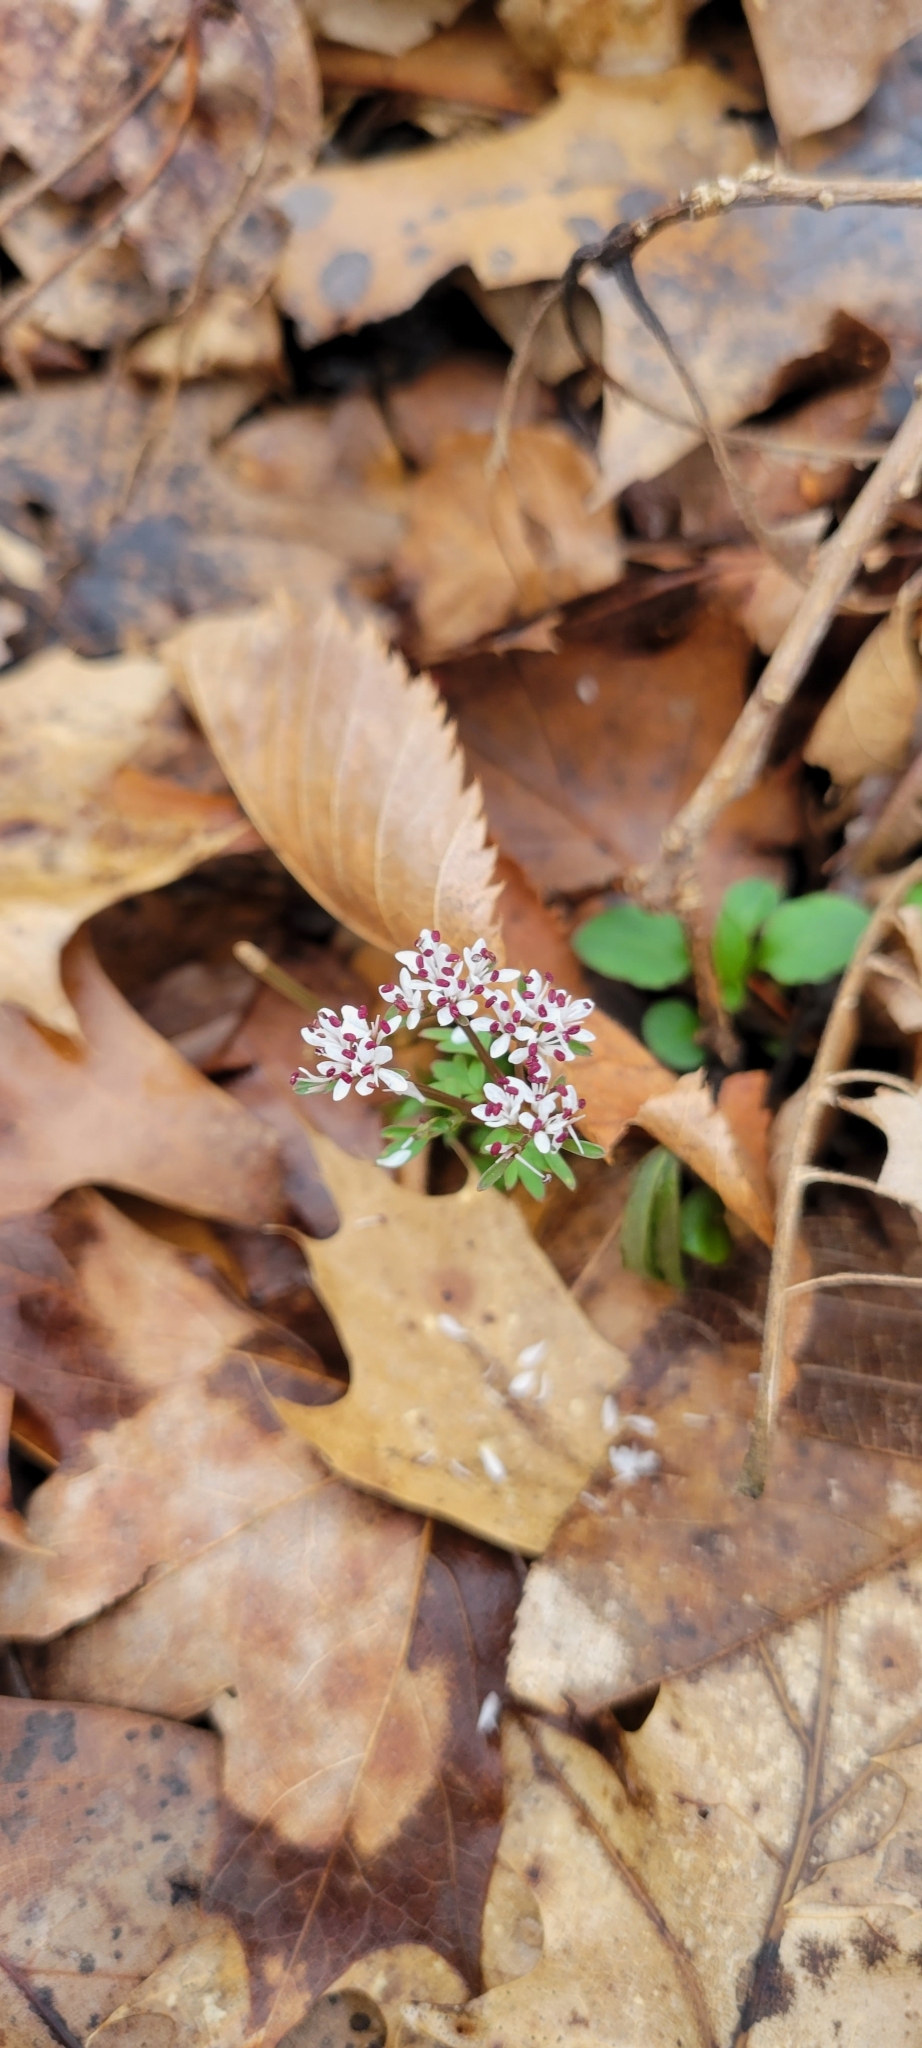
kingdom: Plantae
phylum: Tracheophyta
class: Magnoliopsida
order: Apiales
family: Apiaceae
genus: Erigenia
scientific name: Erigenia bulbosa
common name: Pepper-and-salt
